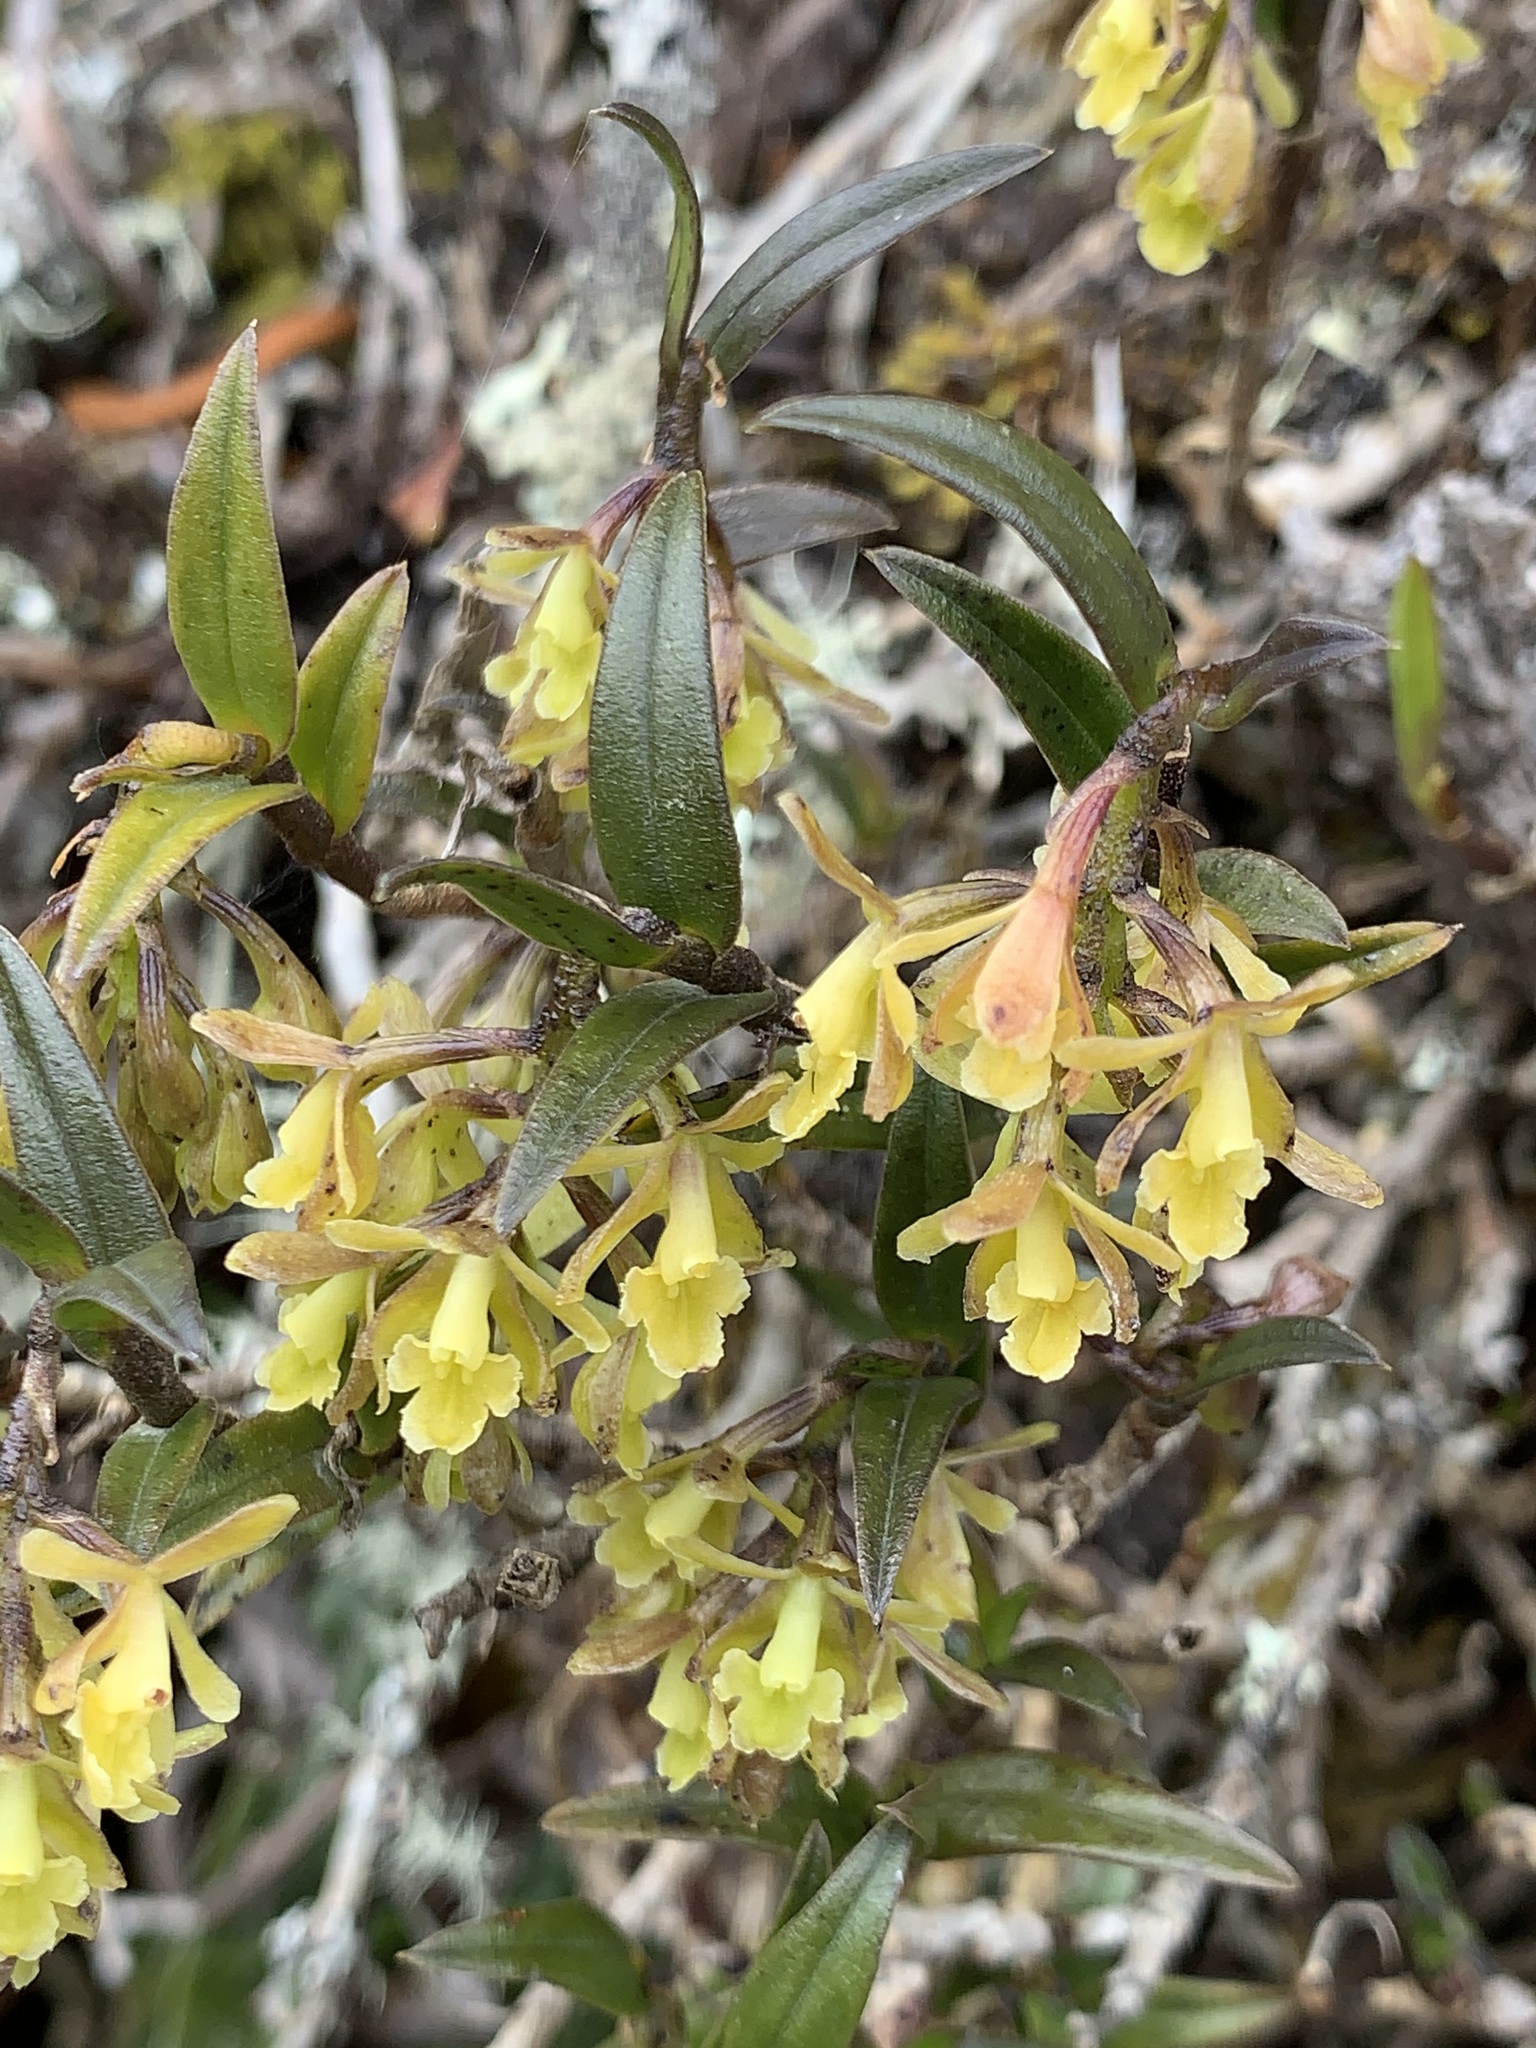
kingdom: Plantae
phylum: Tracheophyta
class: Liliopsida
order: Asparagales
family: Orchidaceae
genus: Epidendrum
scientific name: Epidendrum tenuicaule
